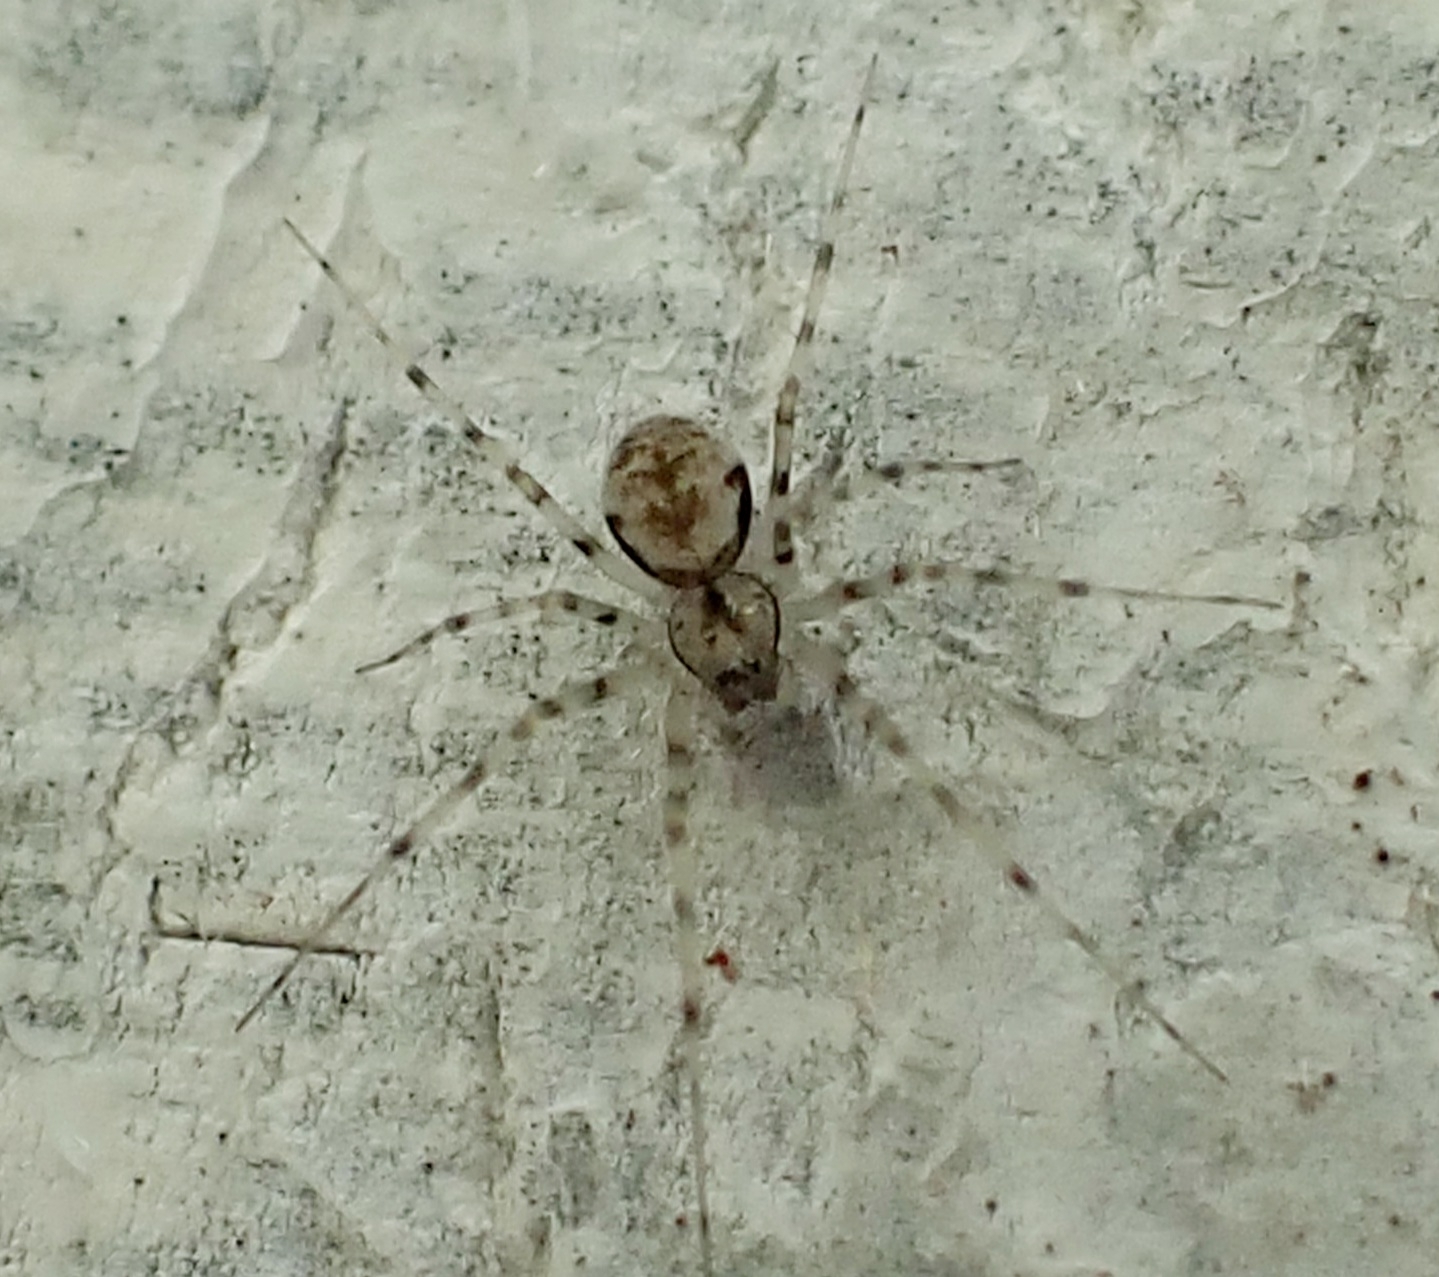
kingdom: Animalia
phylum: Arthropoda
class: Arachnida
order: Araneae
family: Linyphiidae
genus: Drapetisca
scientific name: Drapetisca socialis
